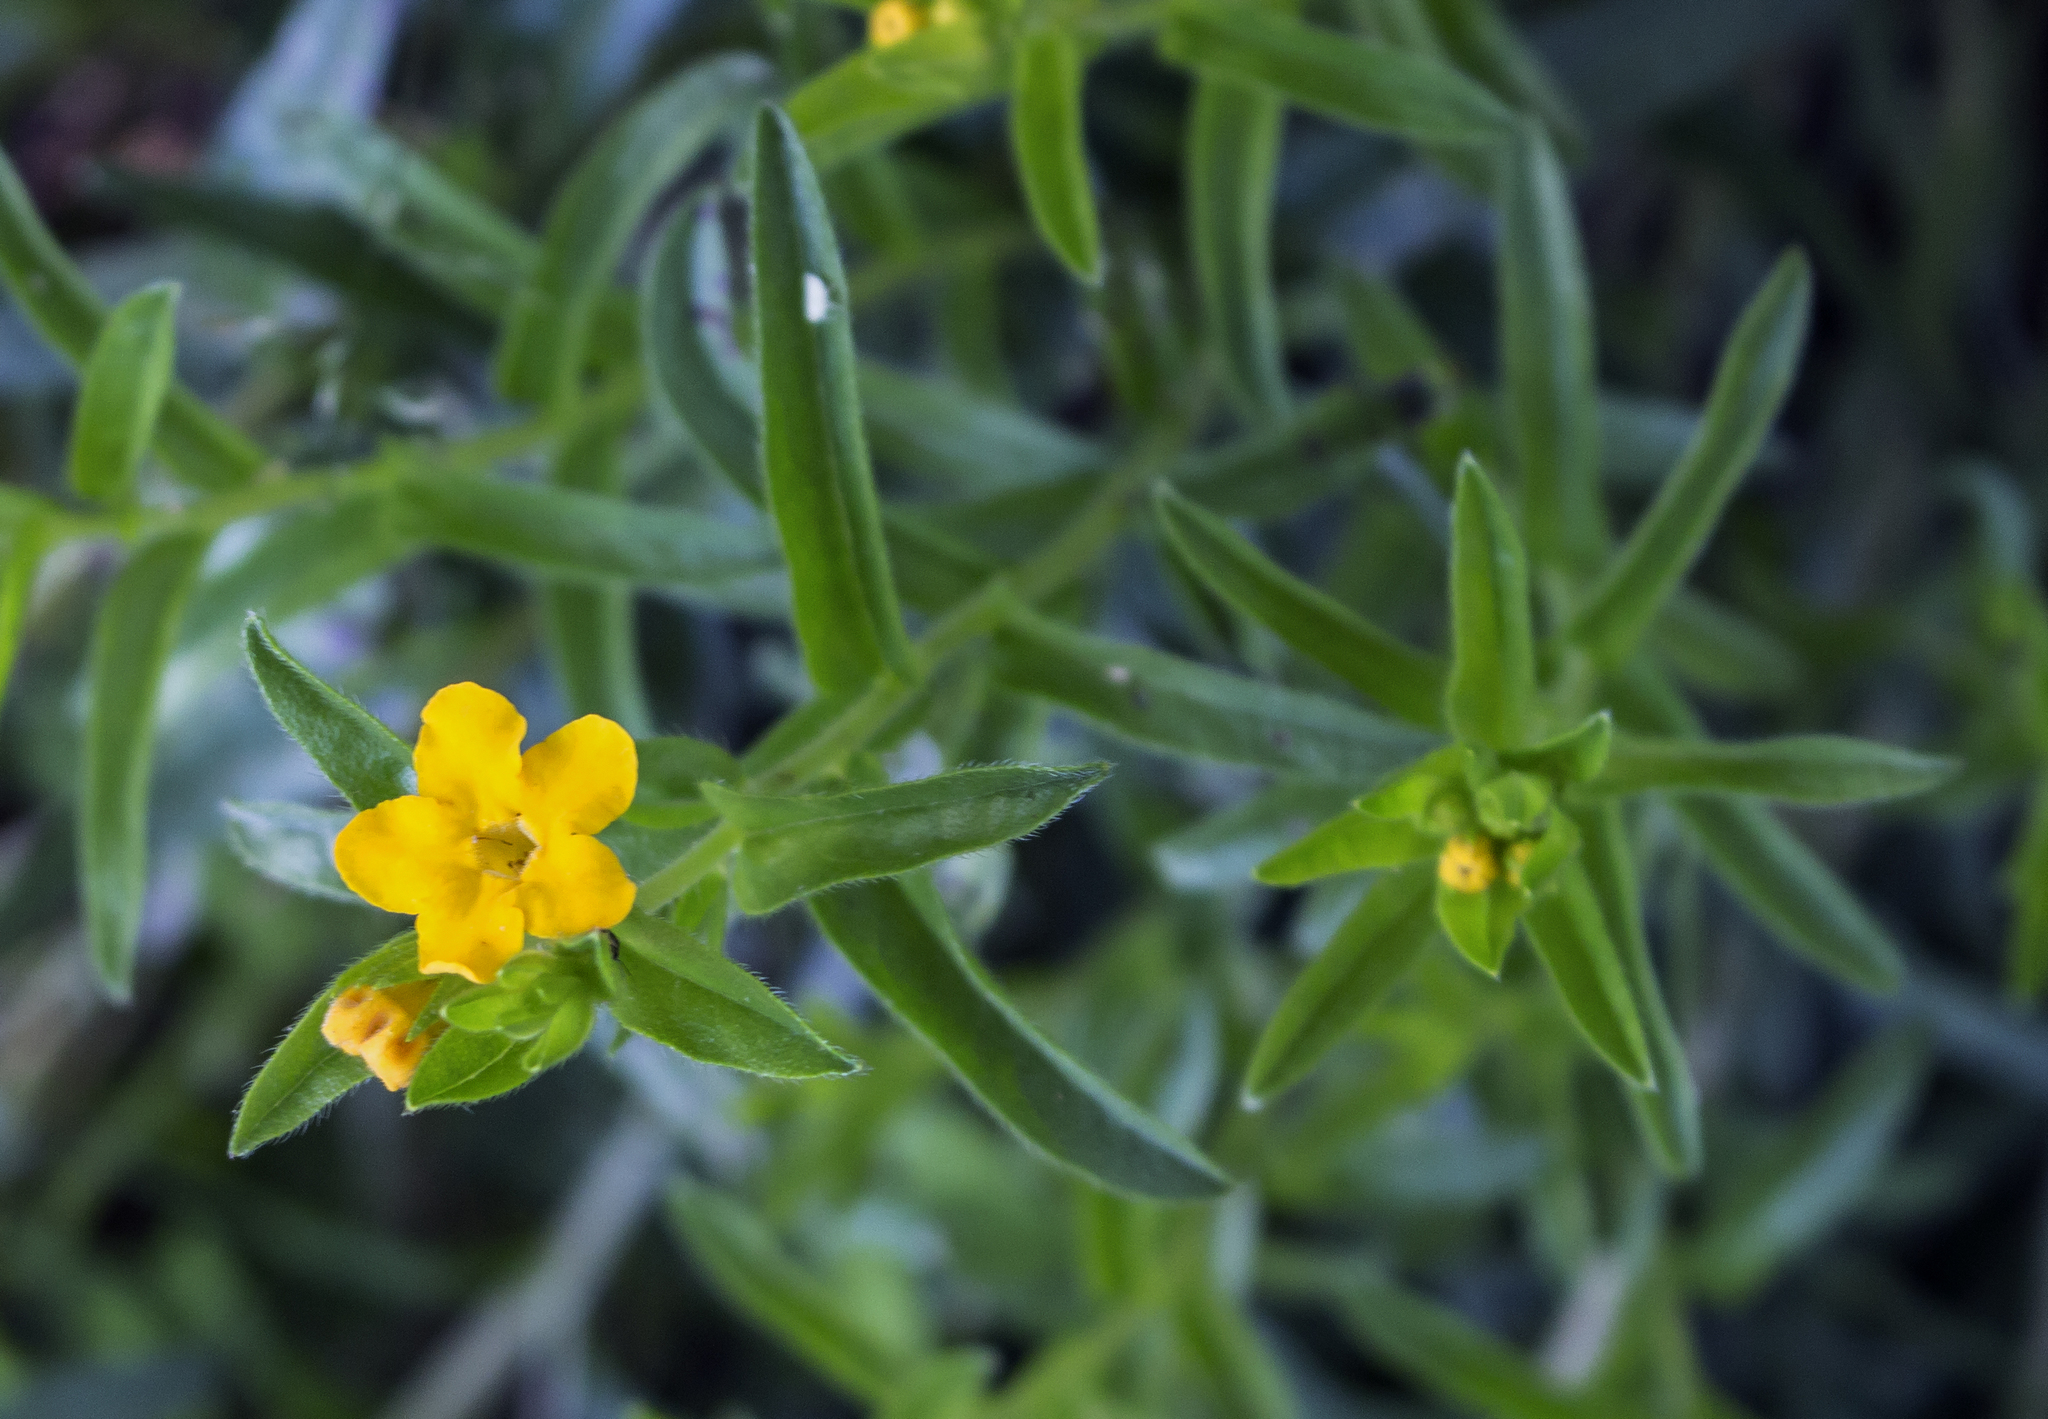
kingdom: Plantae
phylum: Tracheophyta
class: Magnoliopsida
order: Boraginales
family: Boraginaceae
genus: Lithospermum
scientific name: Lithospermum caroliniense
